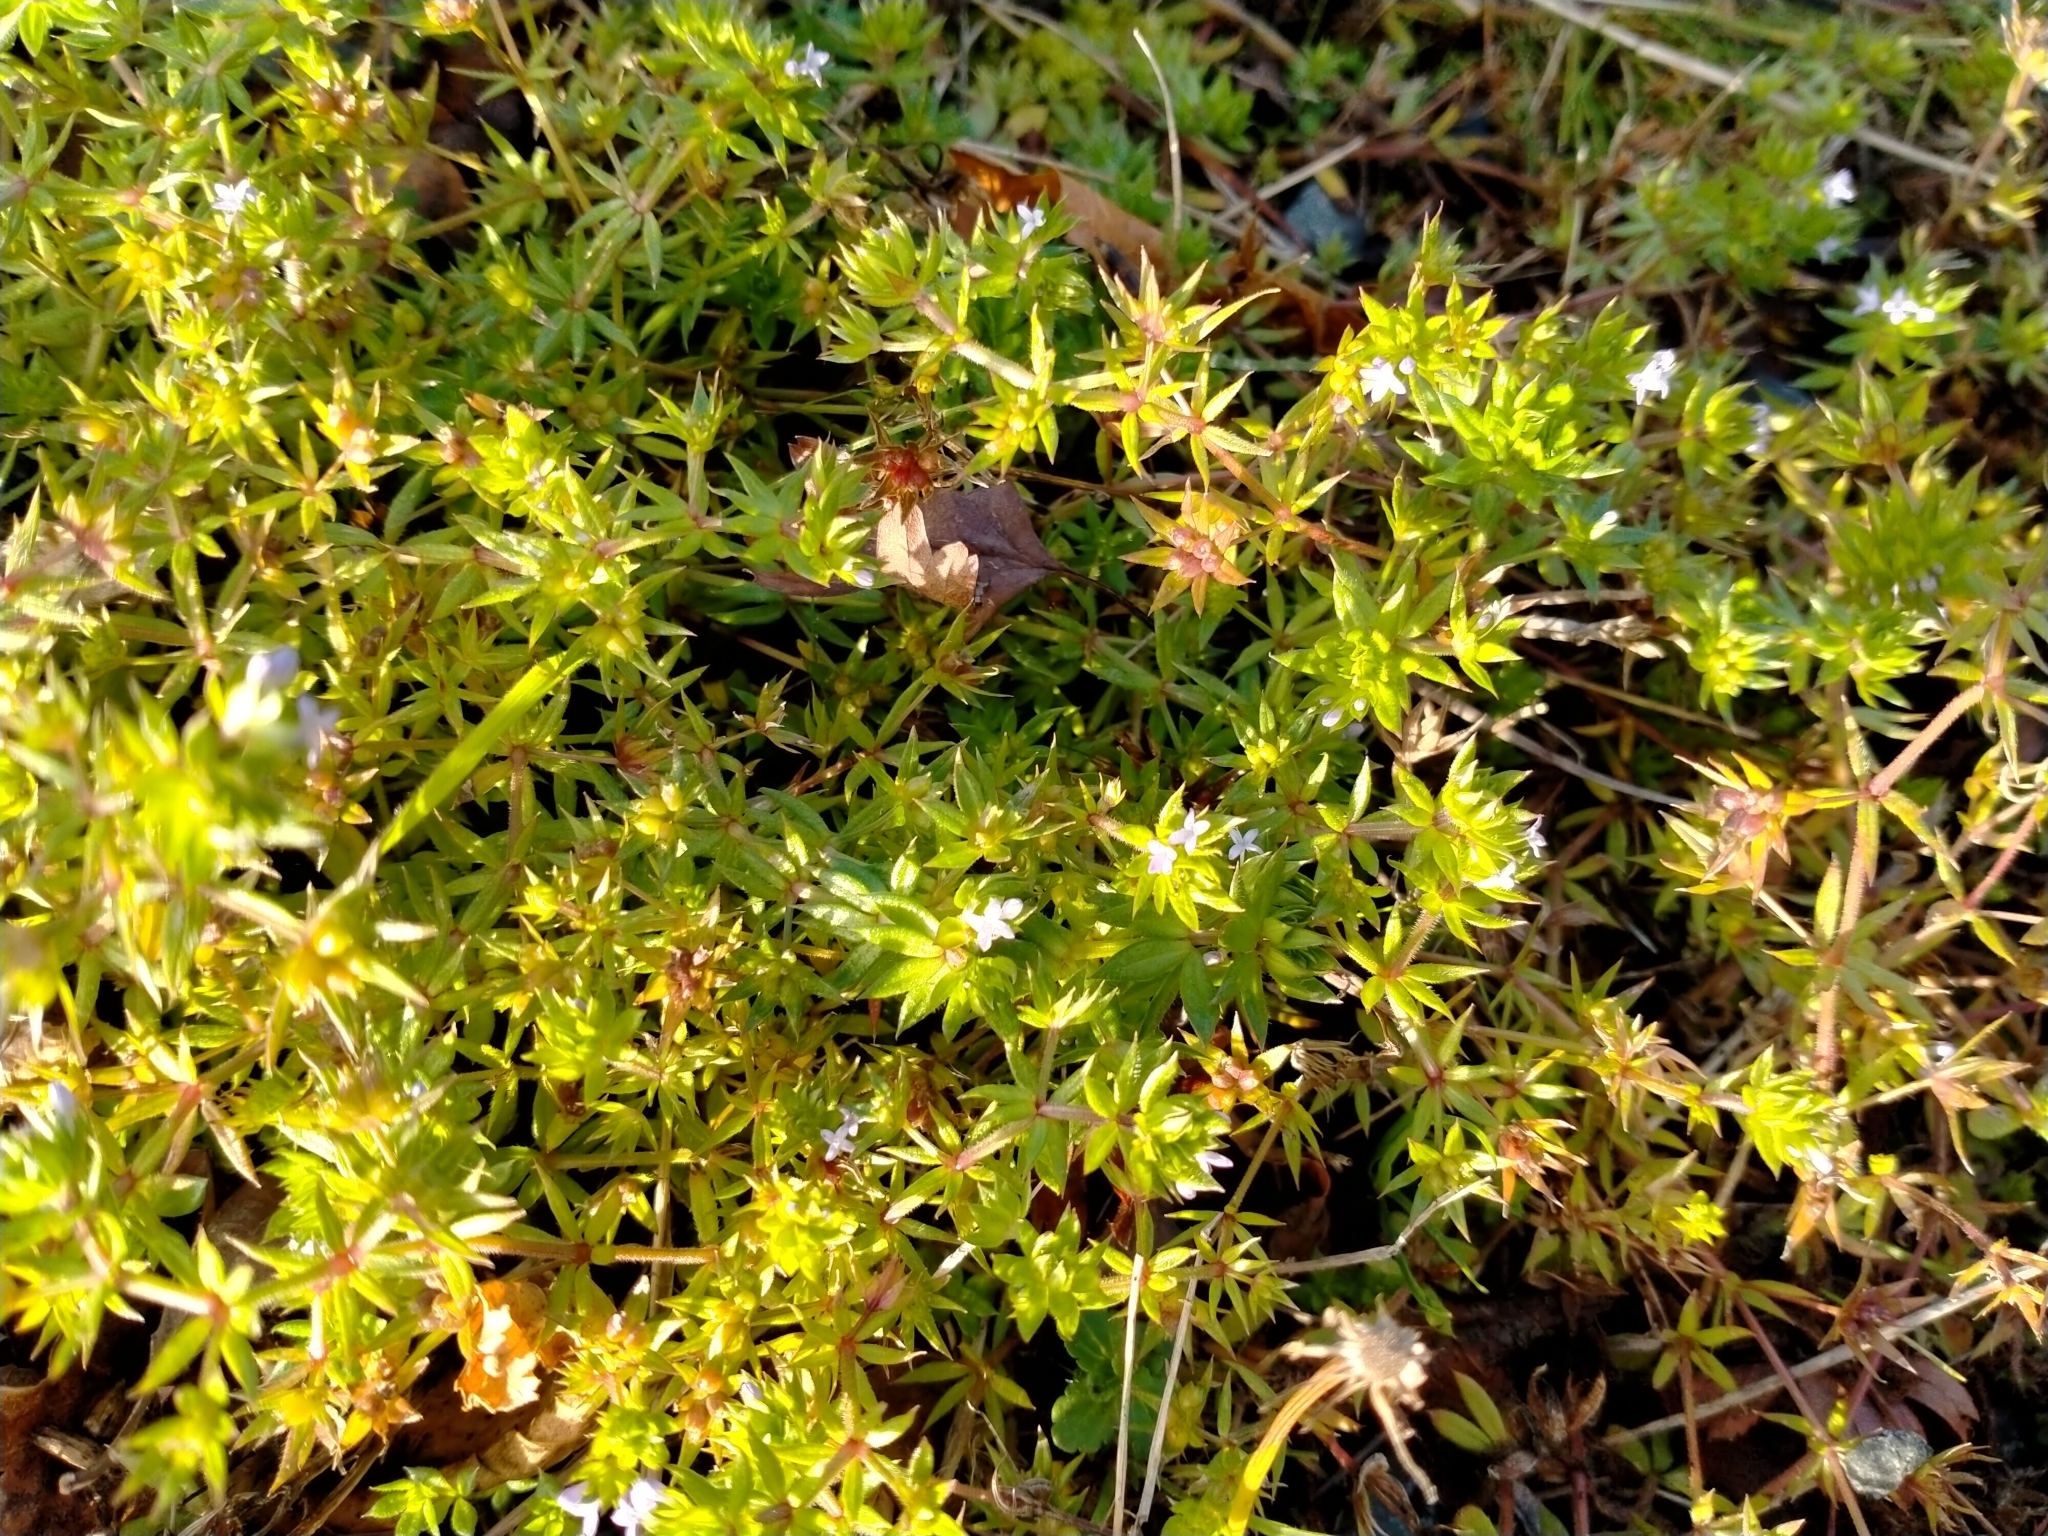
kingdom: Plantae
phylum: Tracheophyta
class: Magnoliopsida
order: Gentianales
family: Rubiaceae
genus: Sherardia
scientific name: Sherardia arvensis
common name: Field madder
